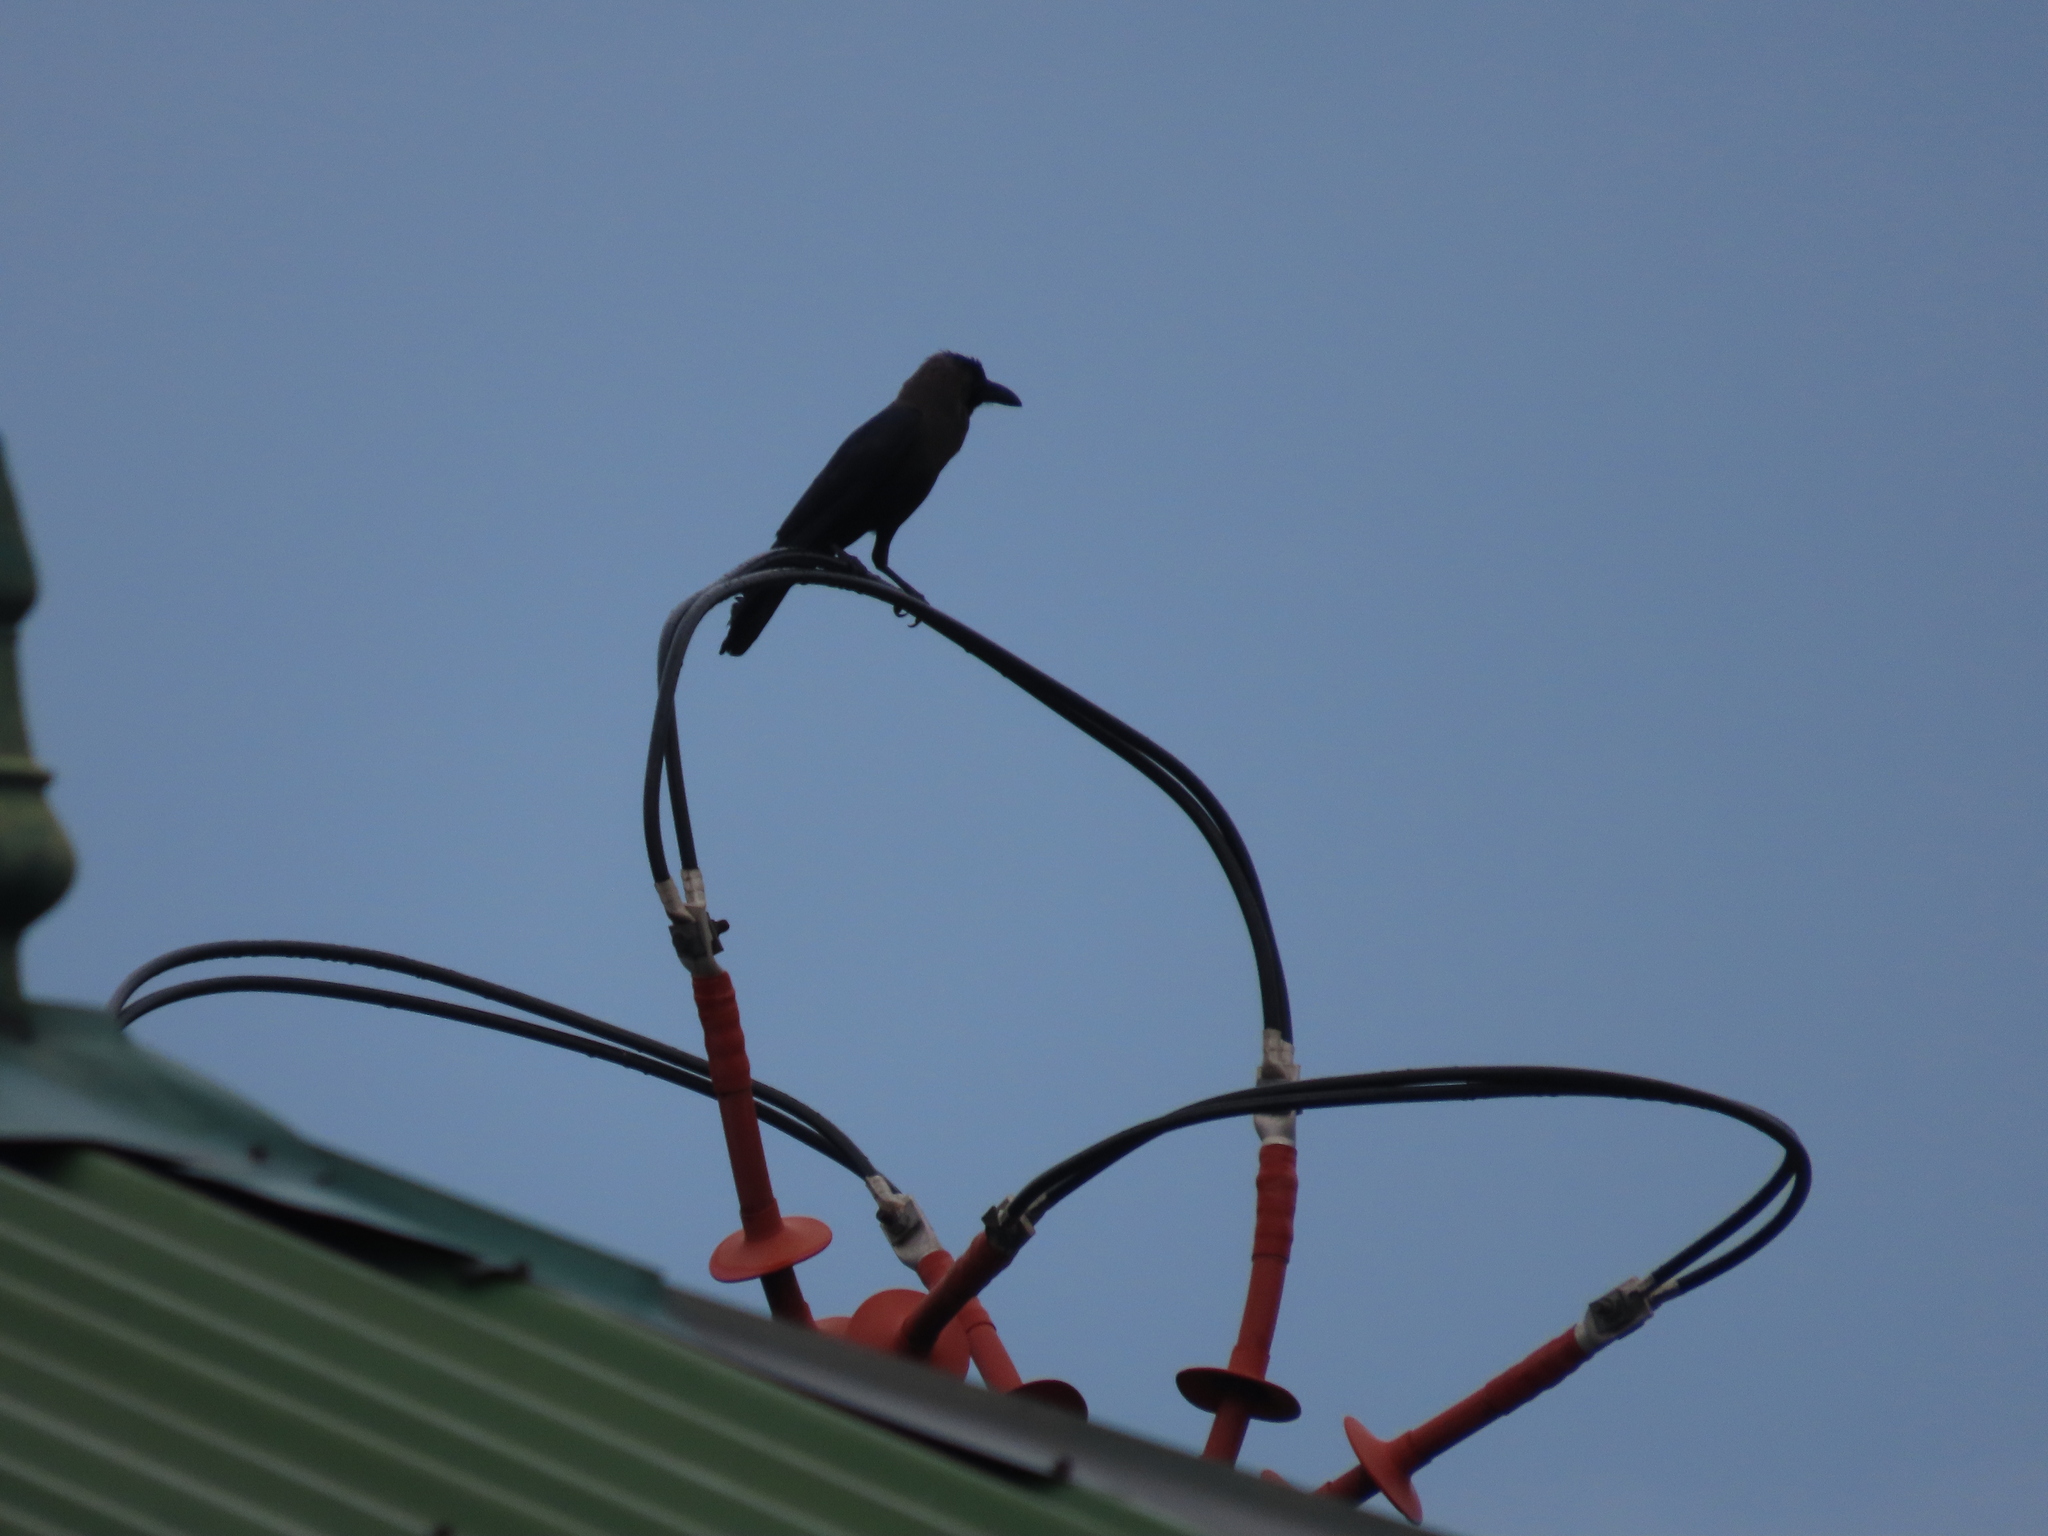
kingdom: Animalia
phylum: Chordata
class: Aves
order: Passeriformes
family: Corvidae
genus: Corvus
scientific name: Corvus splendens
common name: House crow
